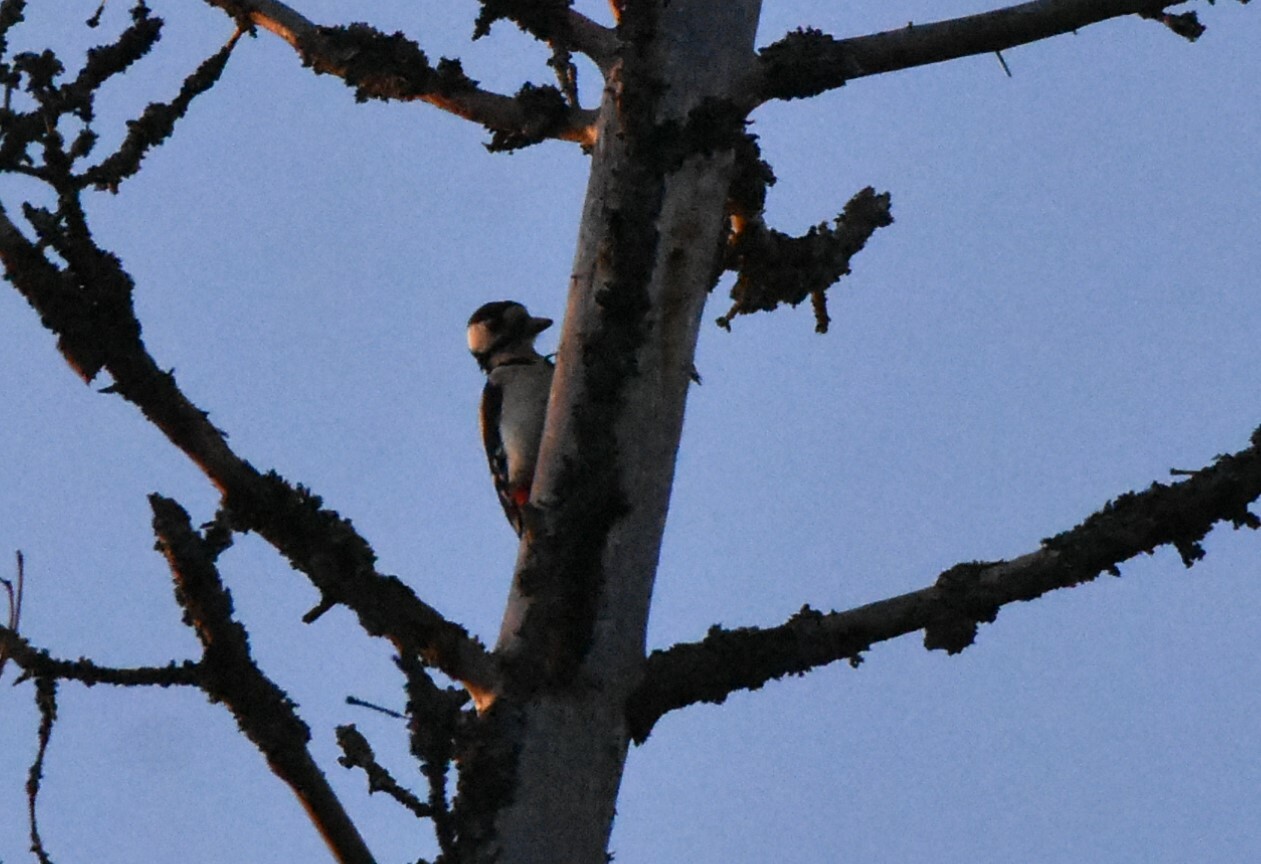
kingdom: Animalia
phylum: Chordata
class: Aves
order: Piciformes
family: Picidae
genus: Dendrocopos
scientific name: Dendrocopos major
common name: Great spotted woodpecker
